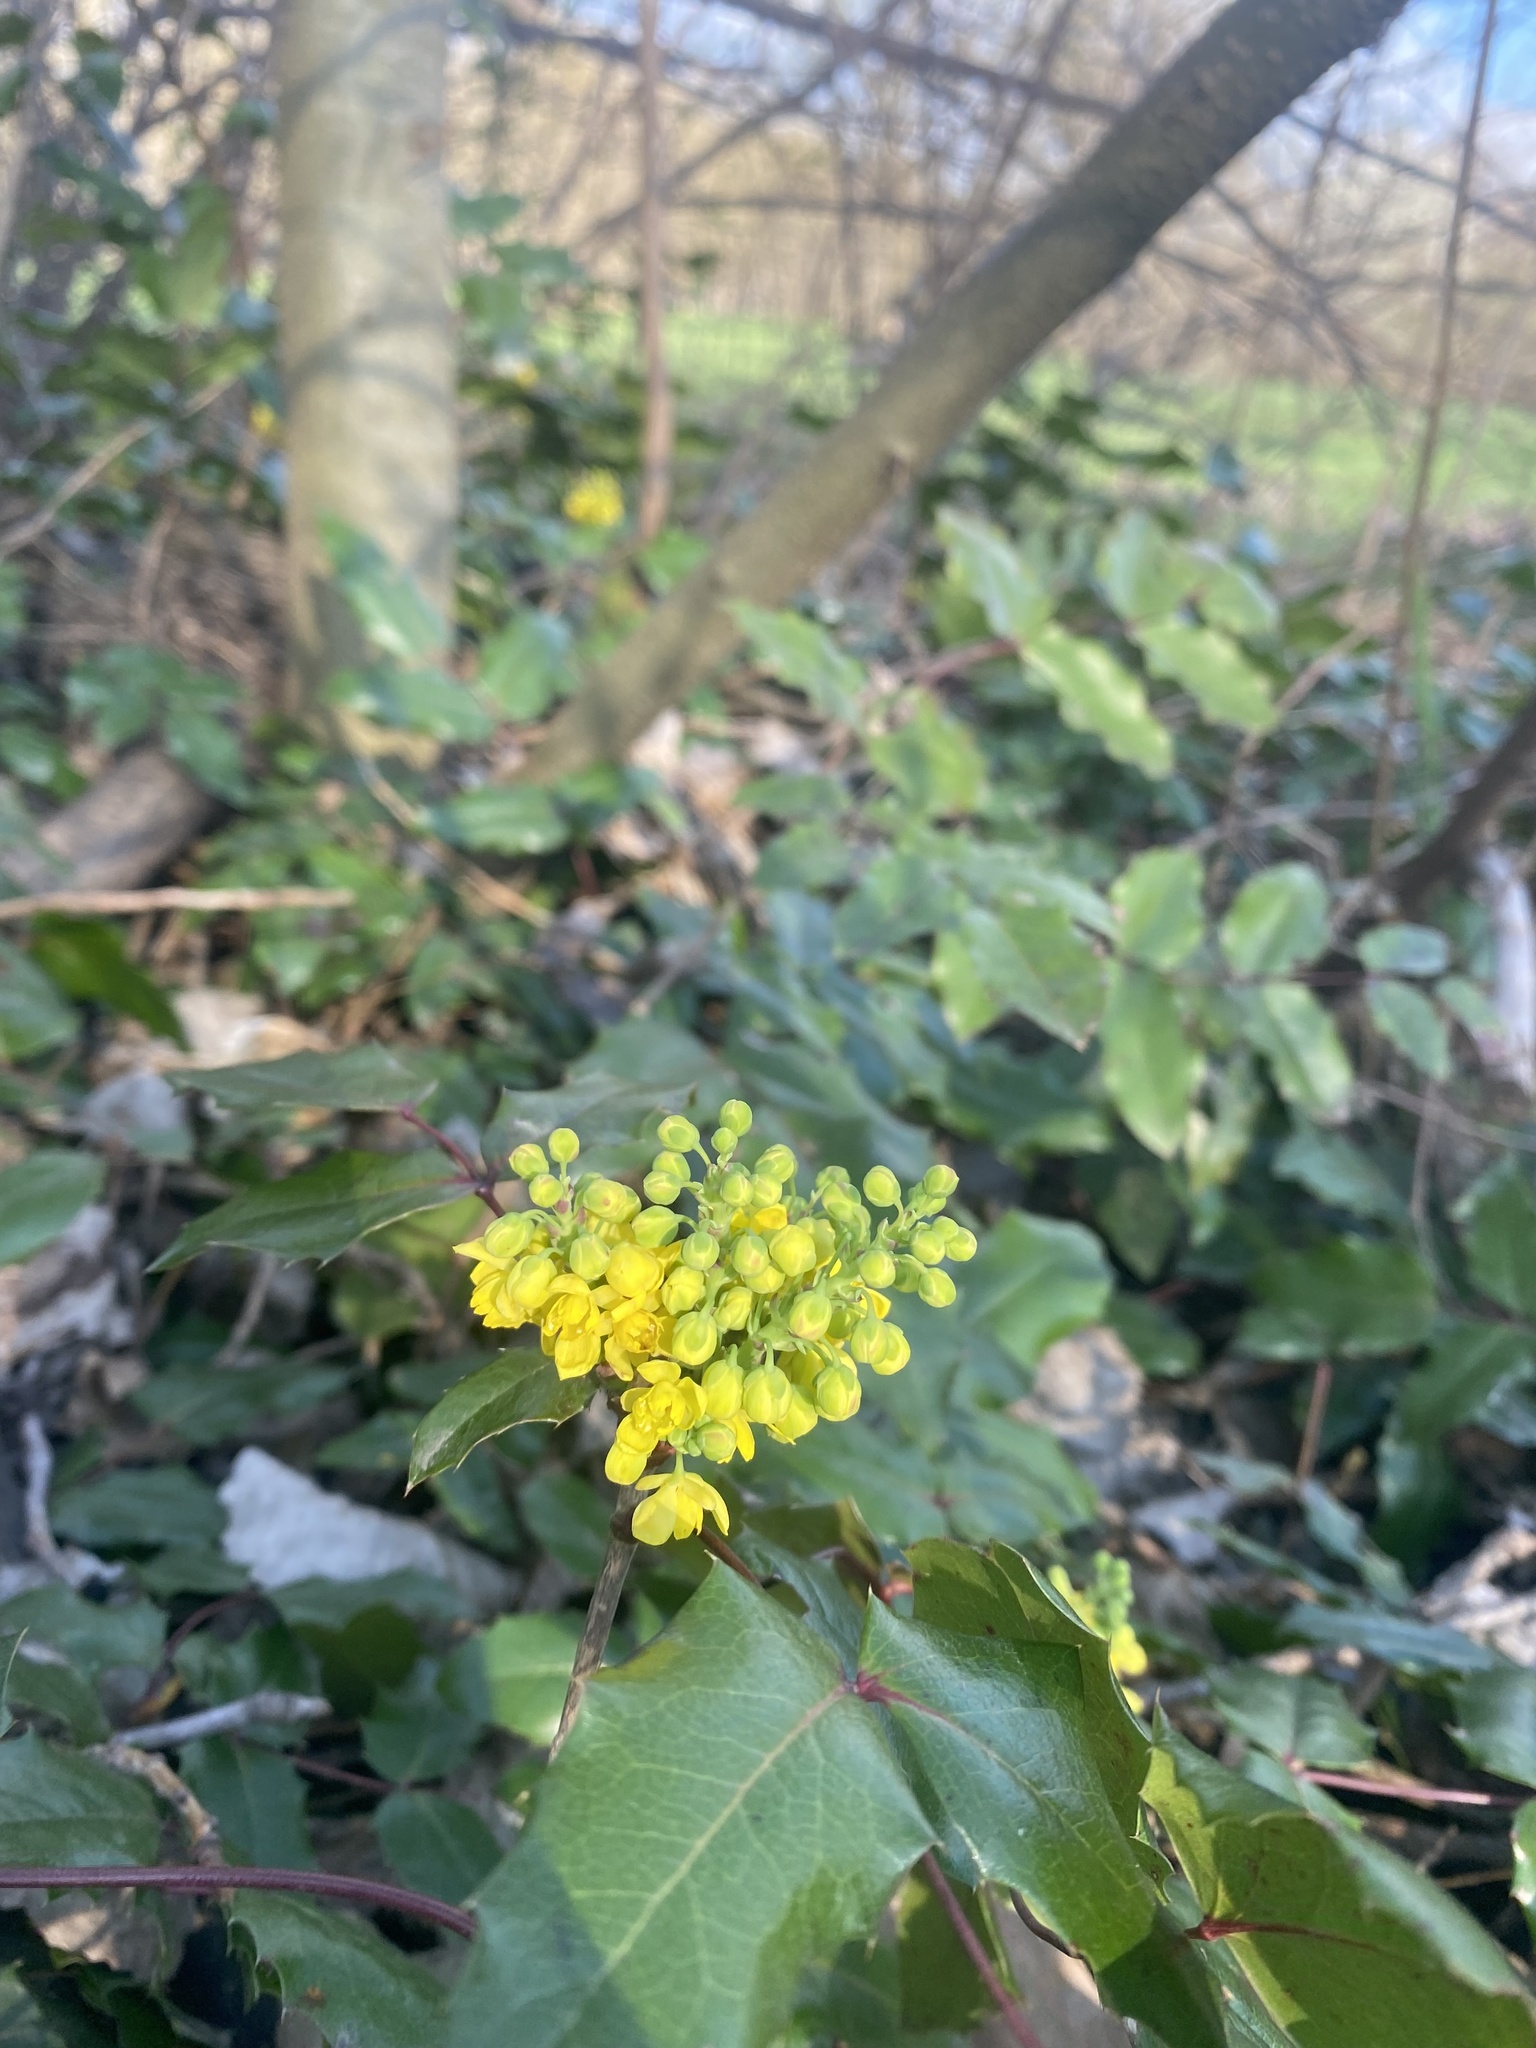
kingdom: Plantae
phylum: Tracheophyta
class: Magnoliopsida
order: Ranunculales
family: Berberidaceae
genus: Mahonia
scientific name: Mahonia aquifolium
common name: Oregon-grape
